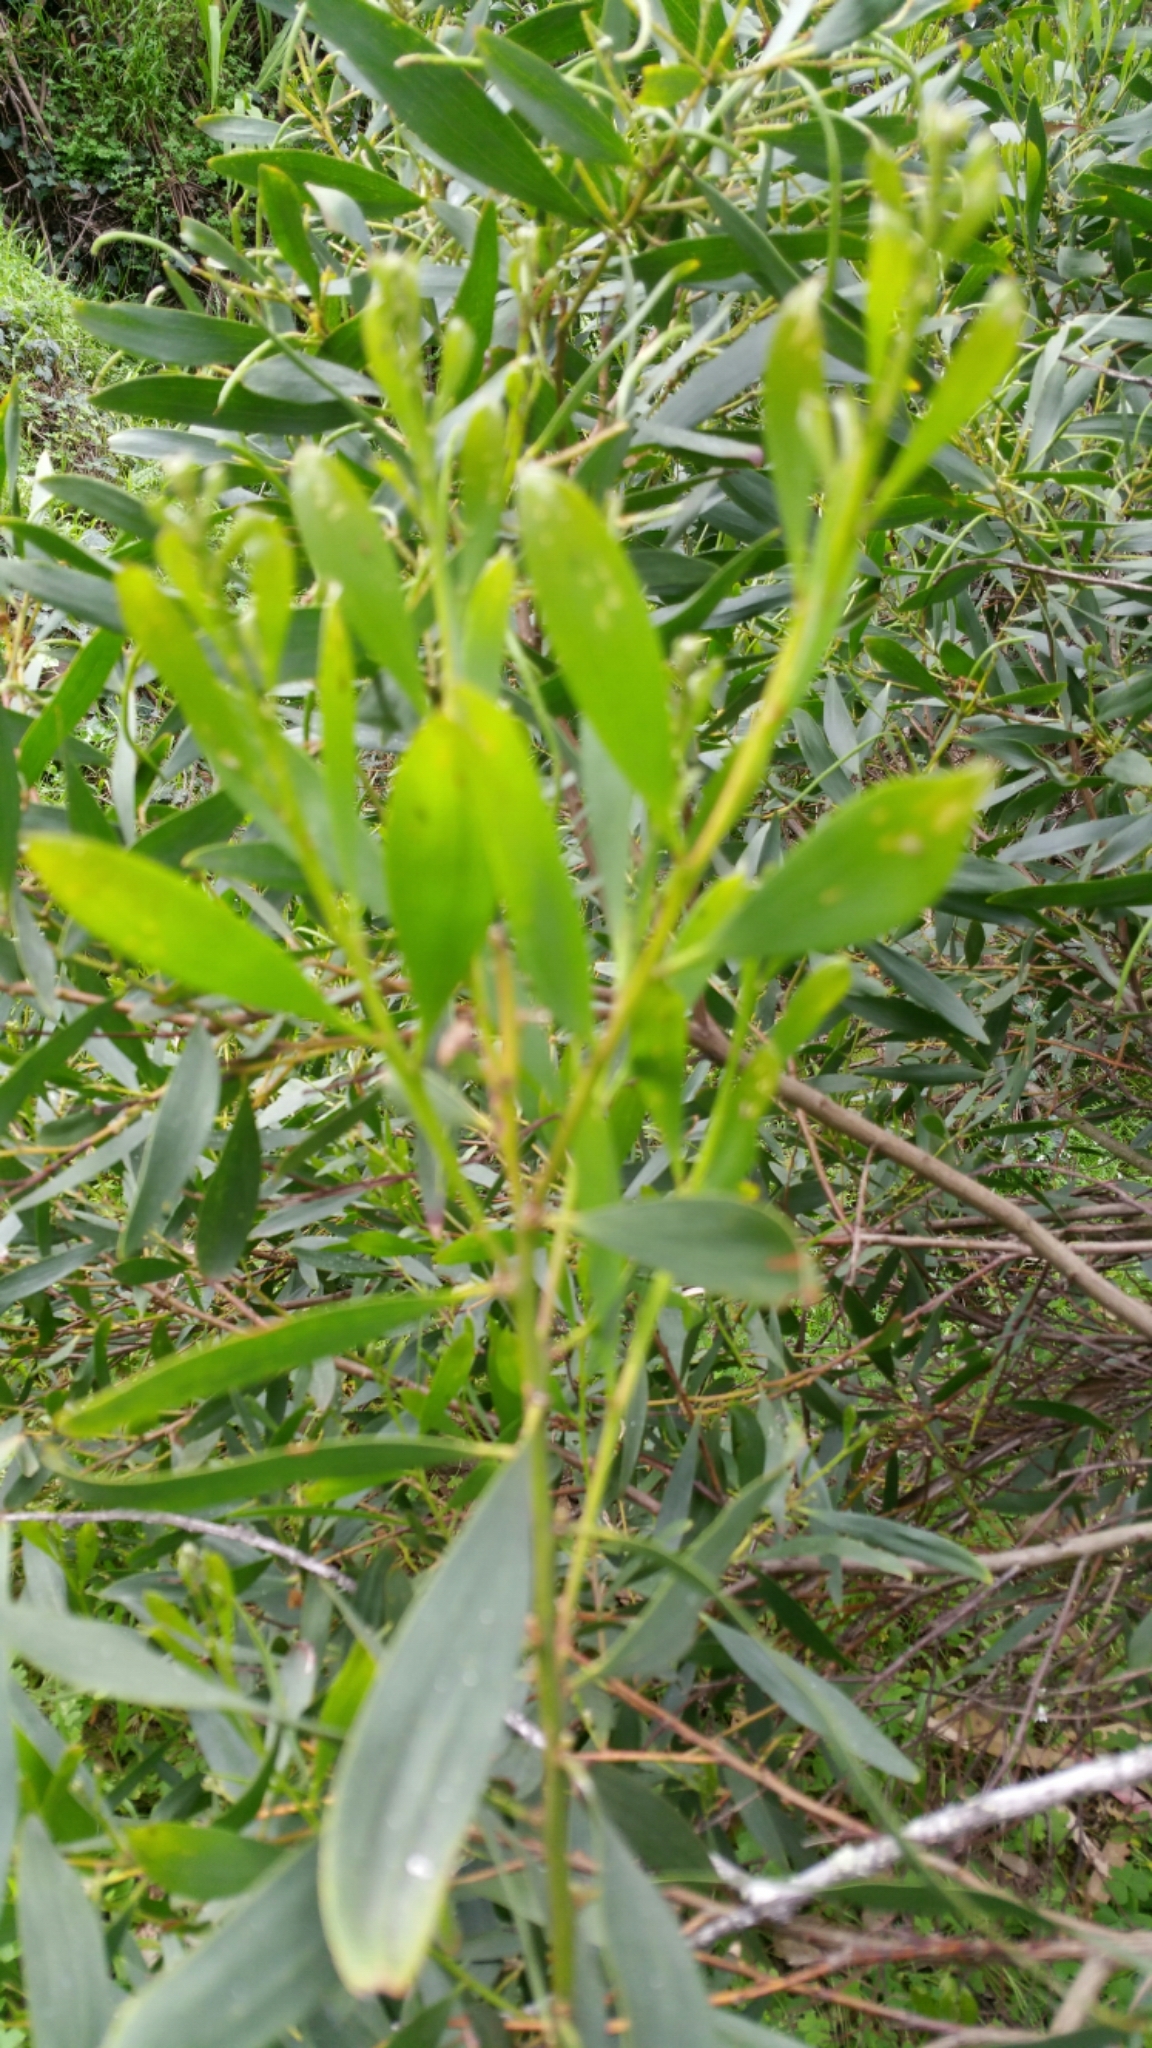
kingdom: Plantae
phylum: Tracheophyta
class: Magnoliopsida
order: Fabales
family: Fabaceae
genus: Acacia
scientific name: Acacia melanoxylon
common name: Blackwood
